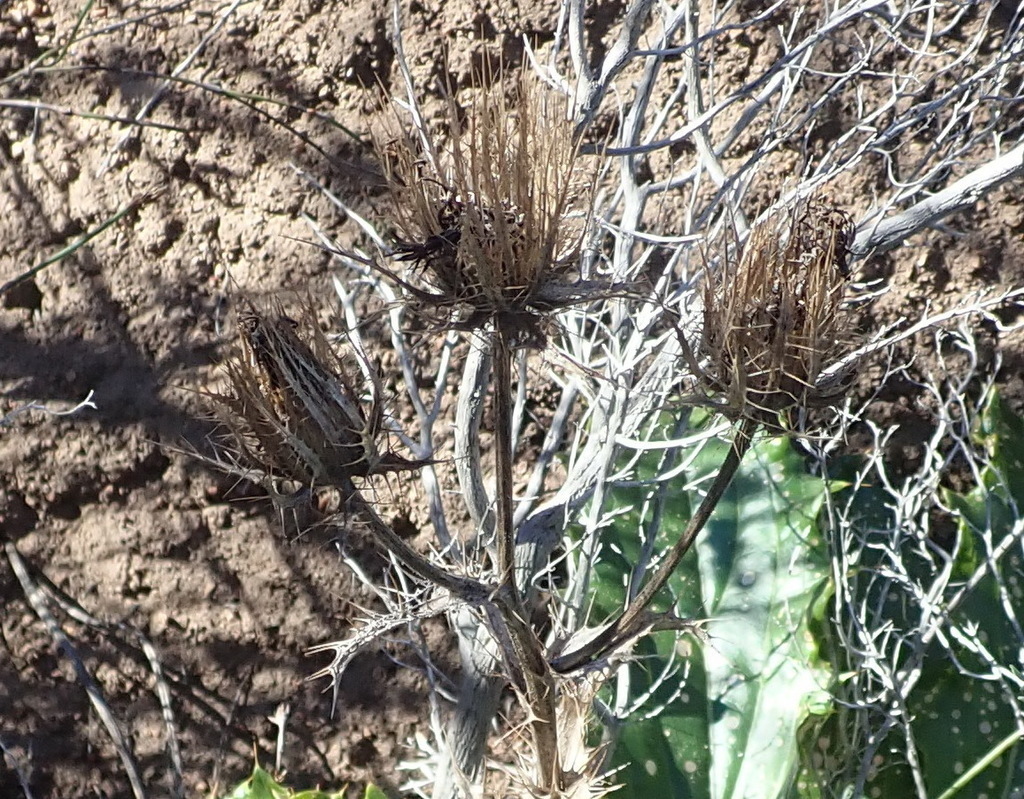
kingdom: Plantae
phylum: Tracheophyta
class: Magnoliopsida
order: Asterales
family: Asteraceae
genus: Berkheya
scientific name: Berkheya carlinoides
